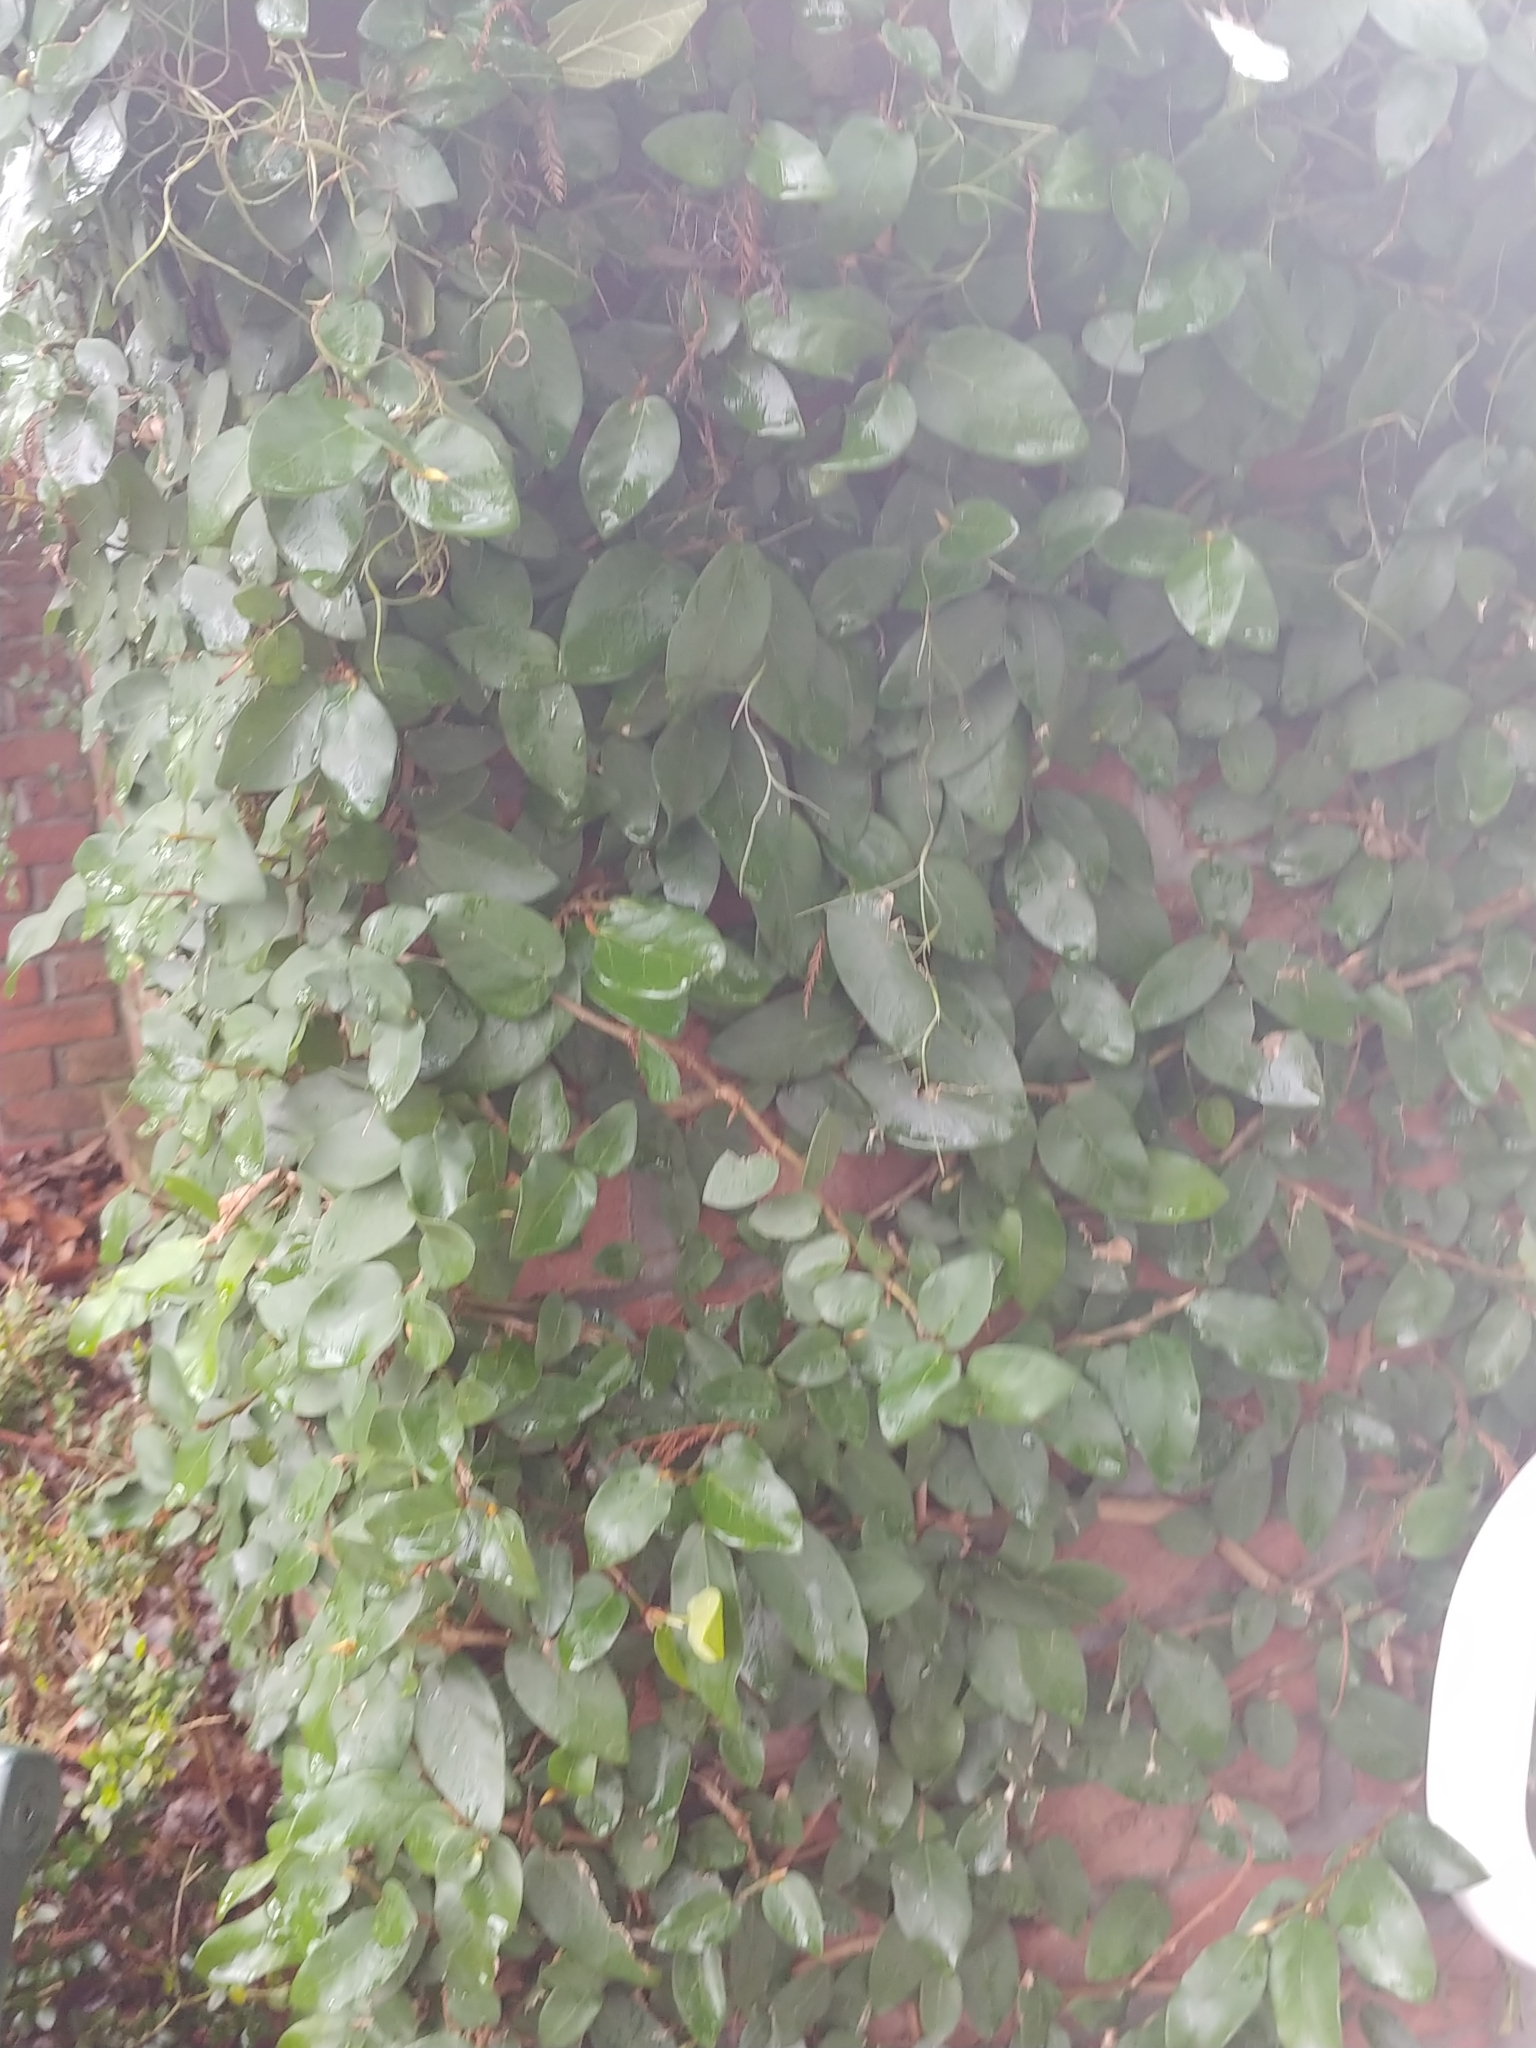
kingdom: Plantae
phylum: Tracheophyta
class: Magnoliopsida
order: Rosales
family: Moraceae
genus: Ficus
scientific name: Ficus pumila
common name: Climbingfig
